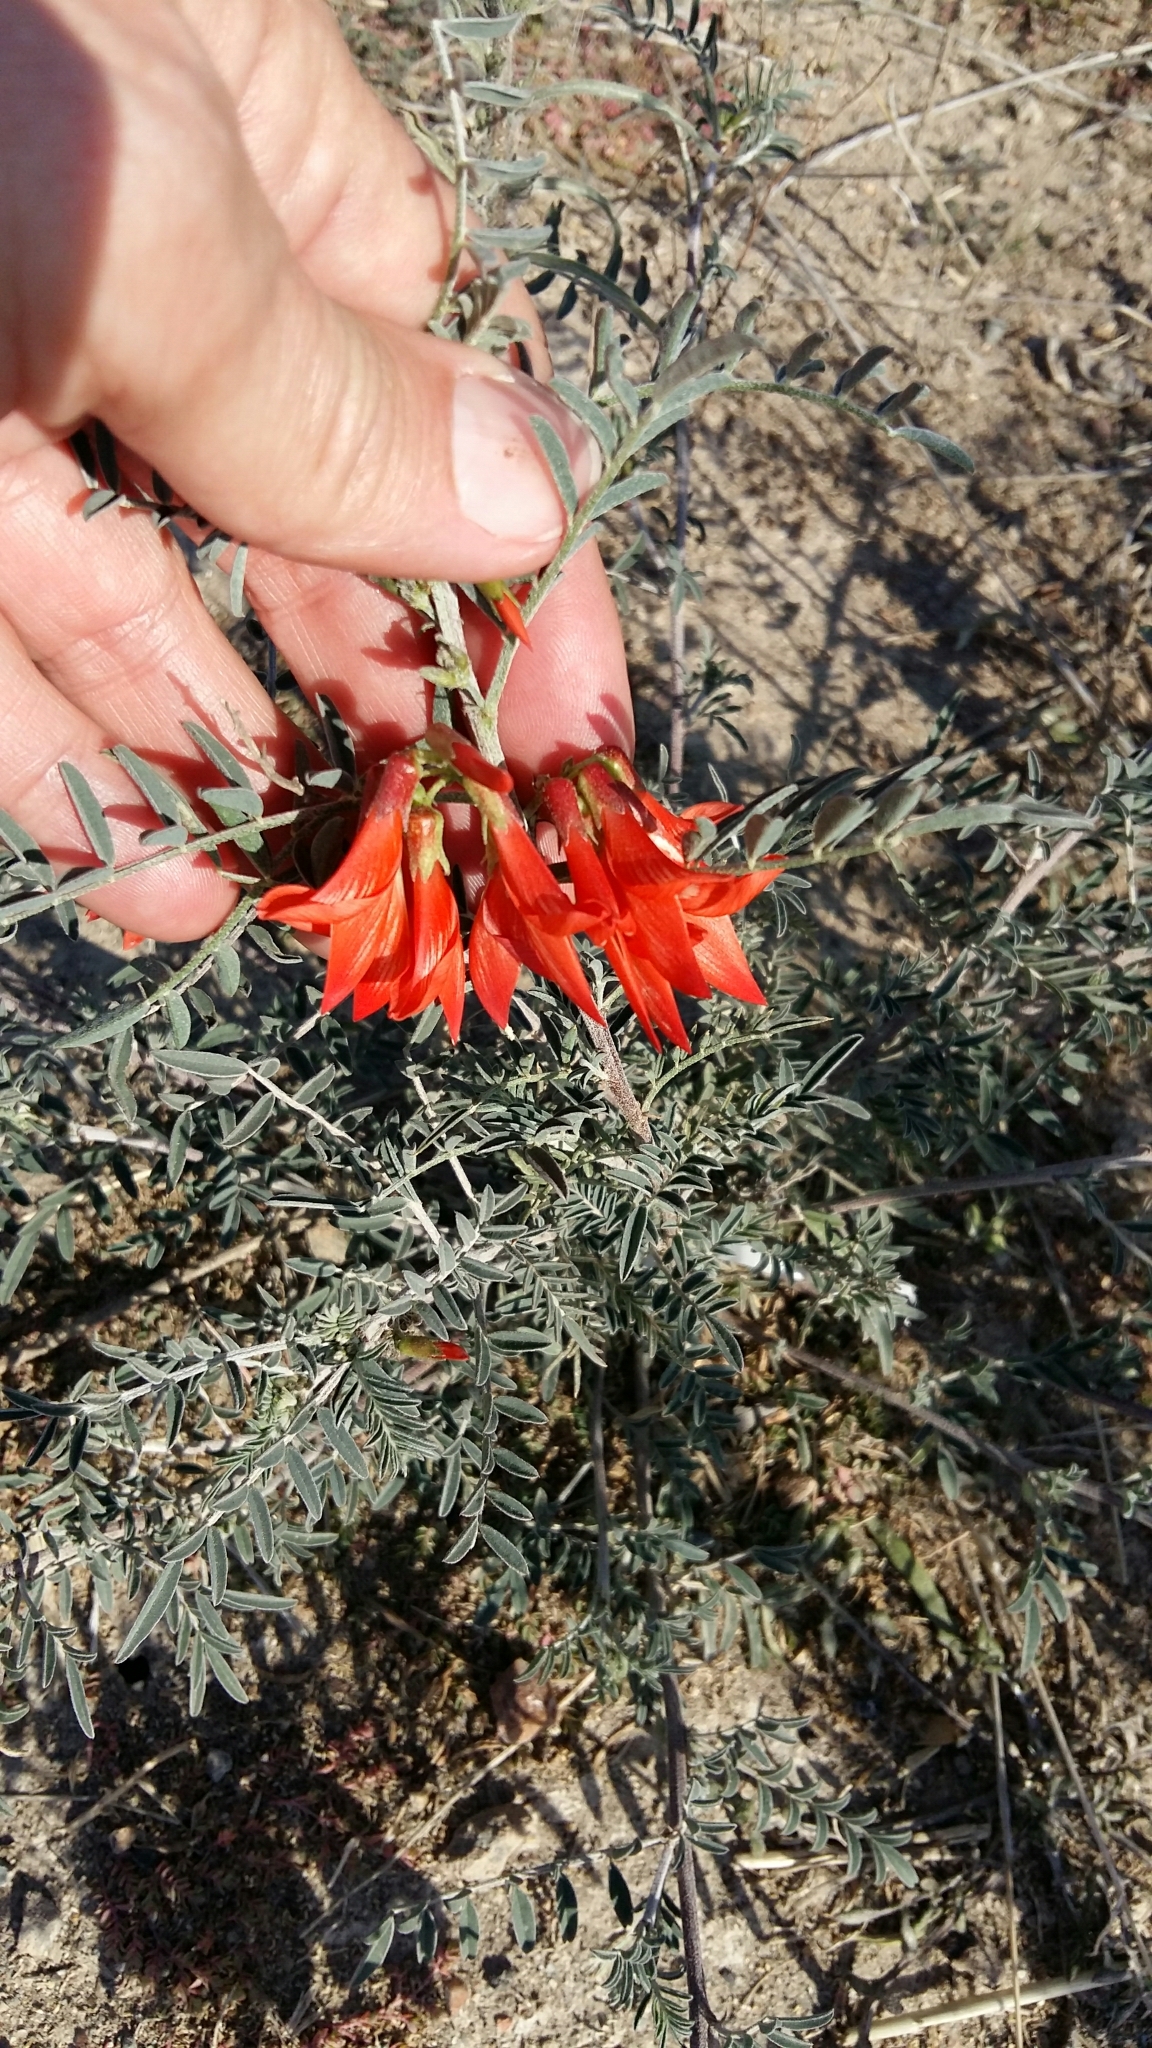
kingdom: Plantae
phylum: Tracheophyta
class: Magnoliopsida
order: Fabales
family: Fabaceae
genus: Lessertia
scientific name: Lessertia frutescens
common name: Balloon-pea
